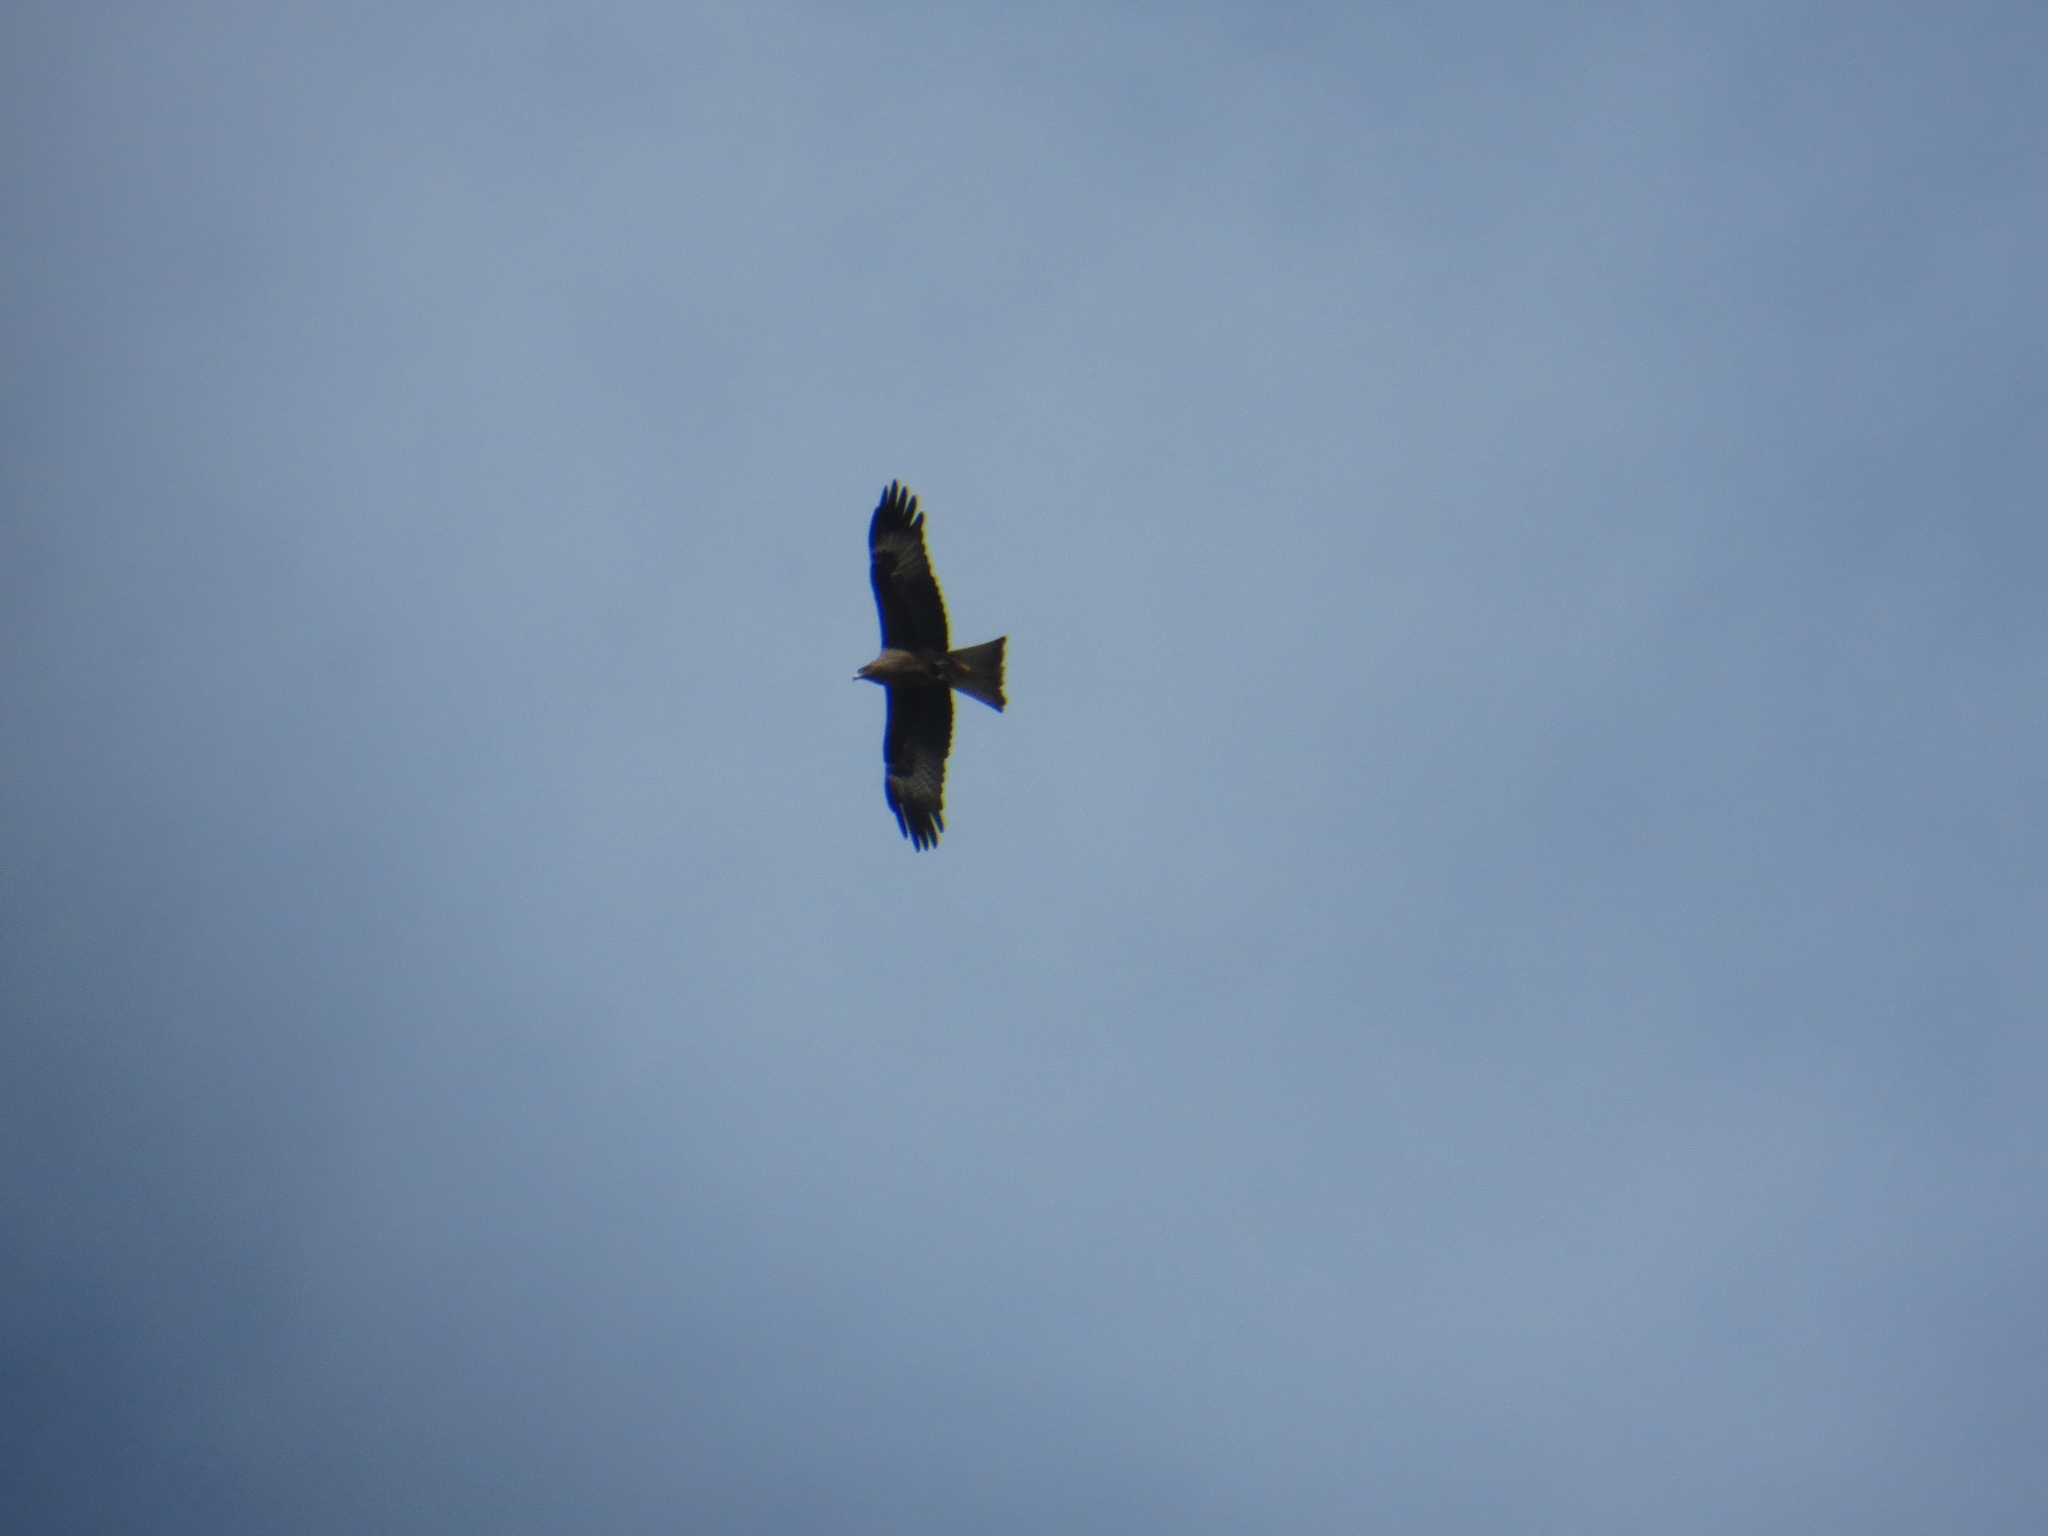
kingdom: Animalia
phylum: Chordata
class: Aves
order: Accipitriformes
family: Accipitridae
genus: Milvus
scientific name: Milvus migrans
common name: Black kite
